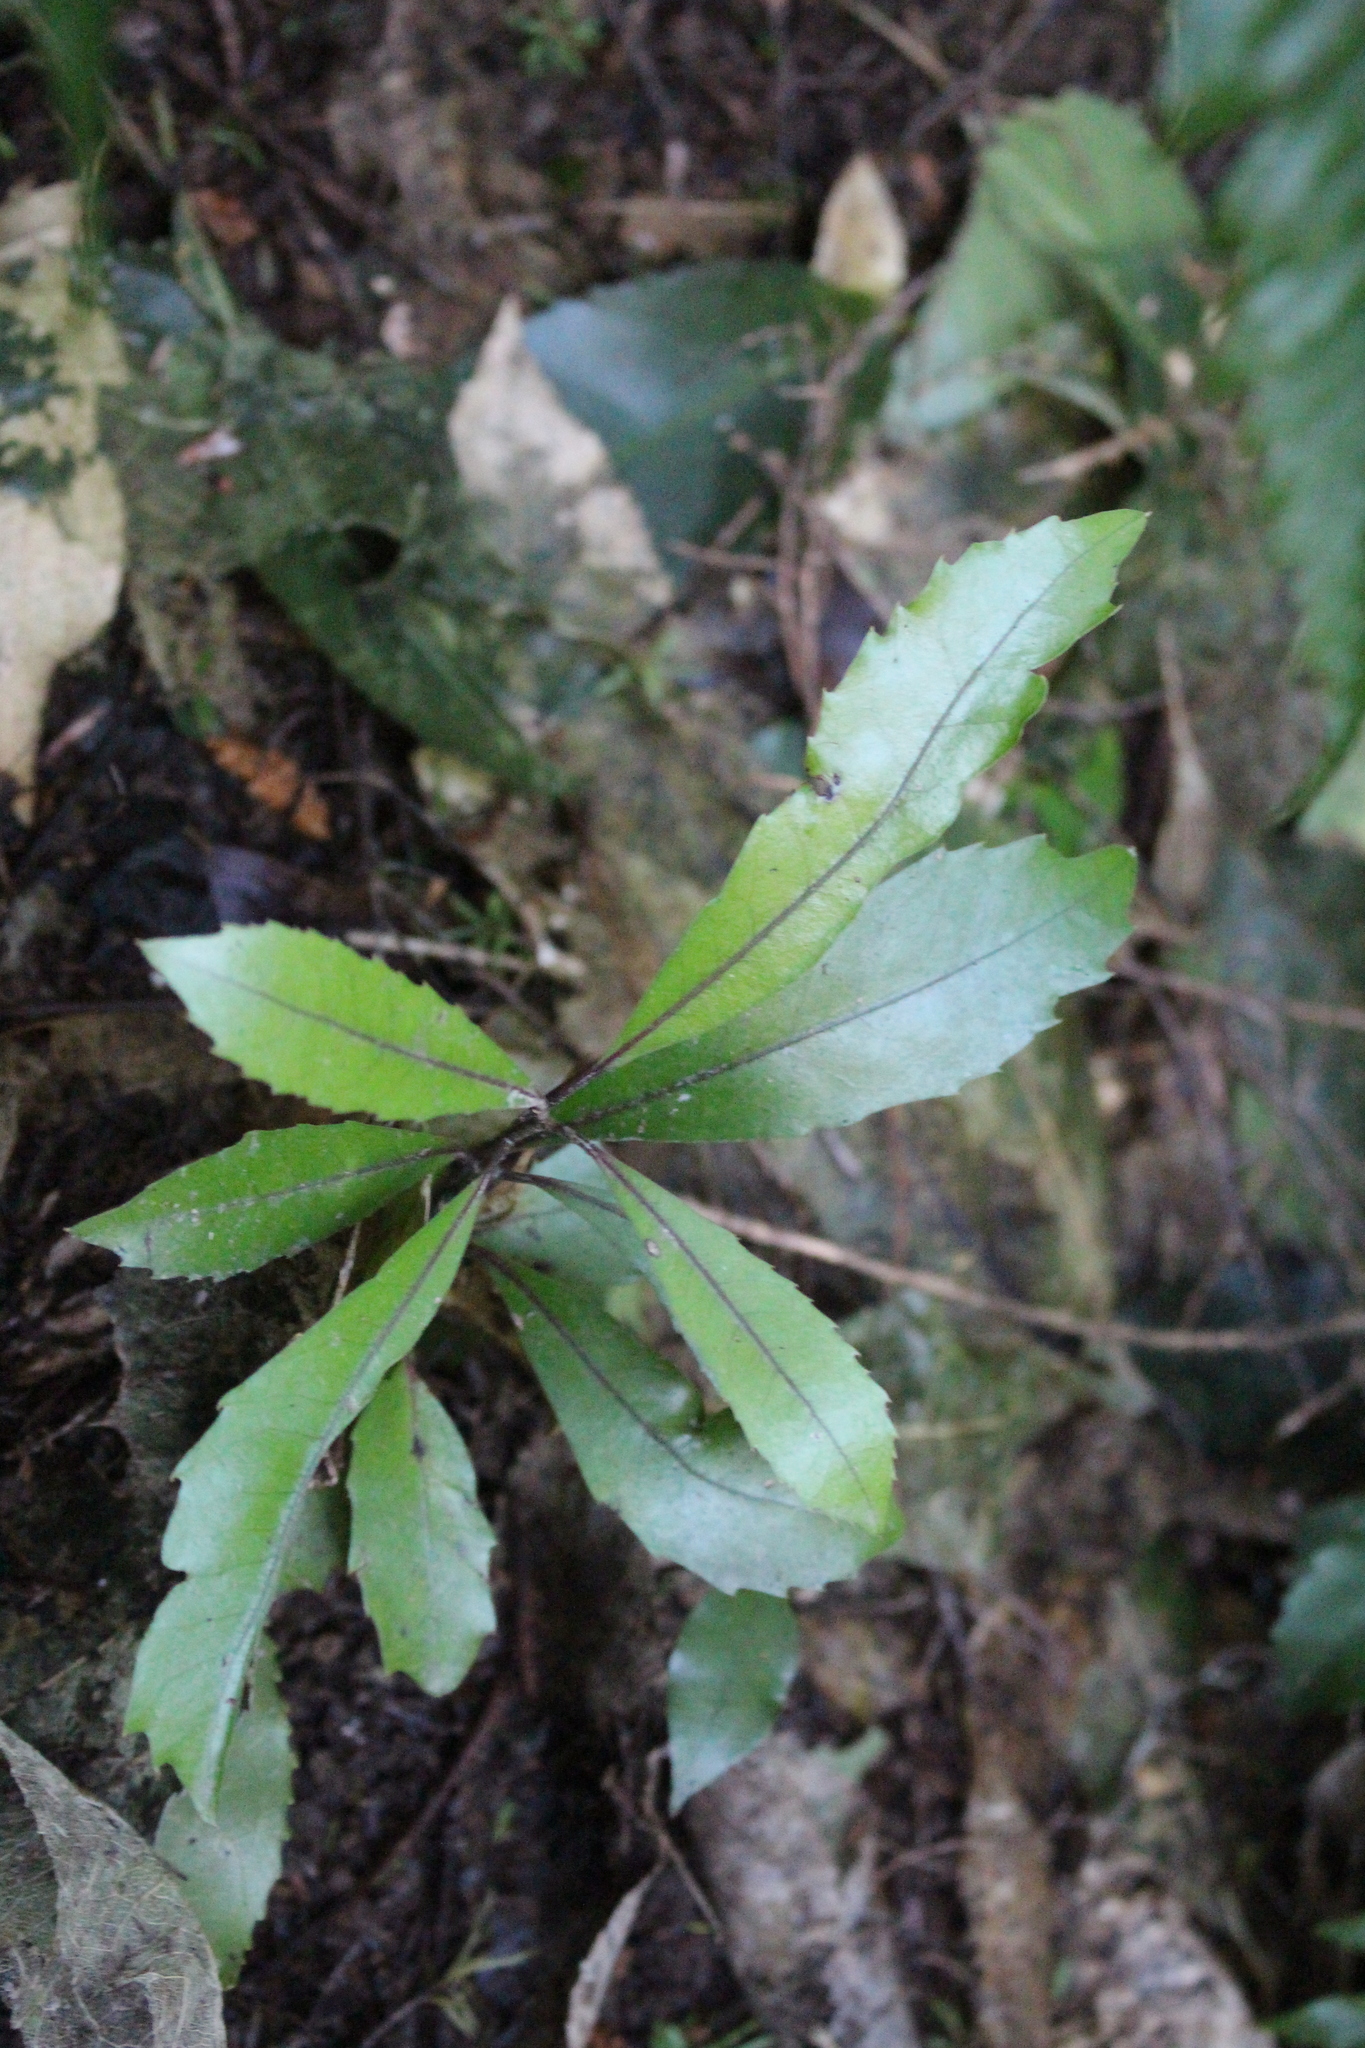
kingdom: Plantae
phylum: Tracheophyta
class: Magnoliopsida
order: Laurales
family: Monimiaceae
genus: Hedycarya
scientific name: Hedycarya arborea
